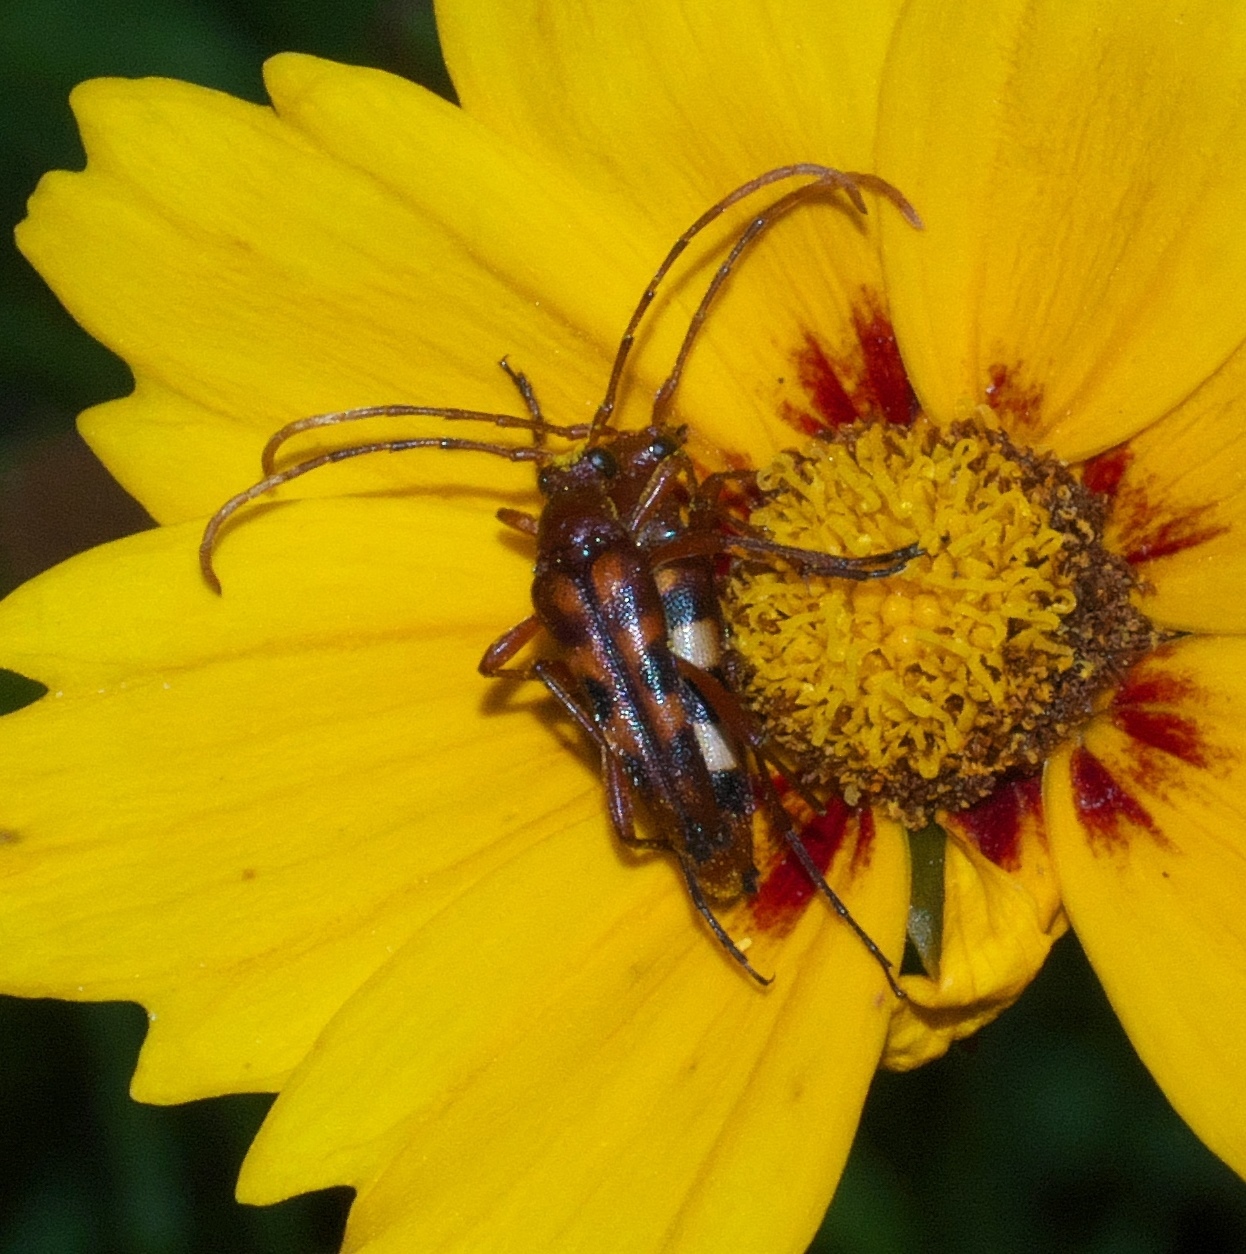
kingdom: Animalia
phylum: Arthropoda
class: Insecta
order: Coleoptera
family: Cerambycidae
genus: Strangalia
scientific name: Strangalia sexnotata
